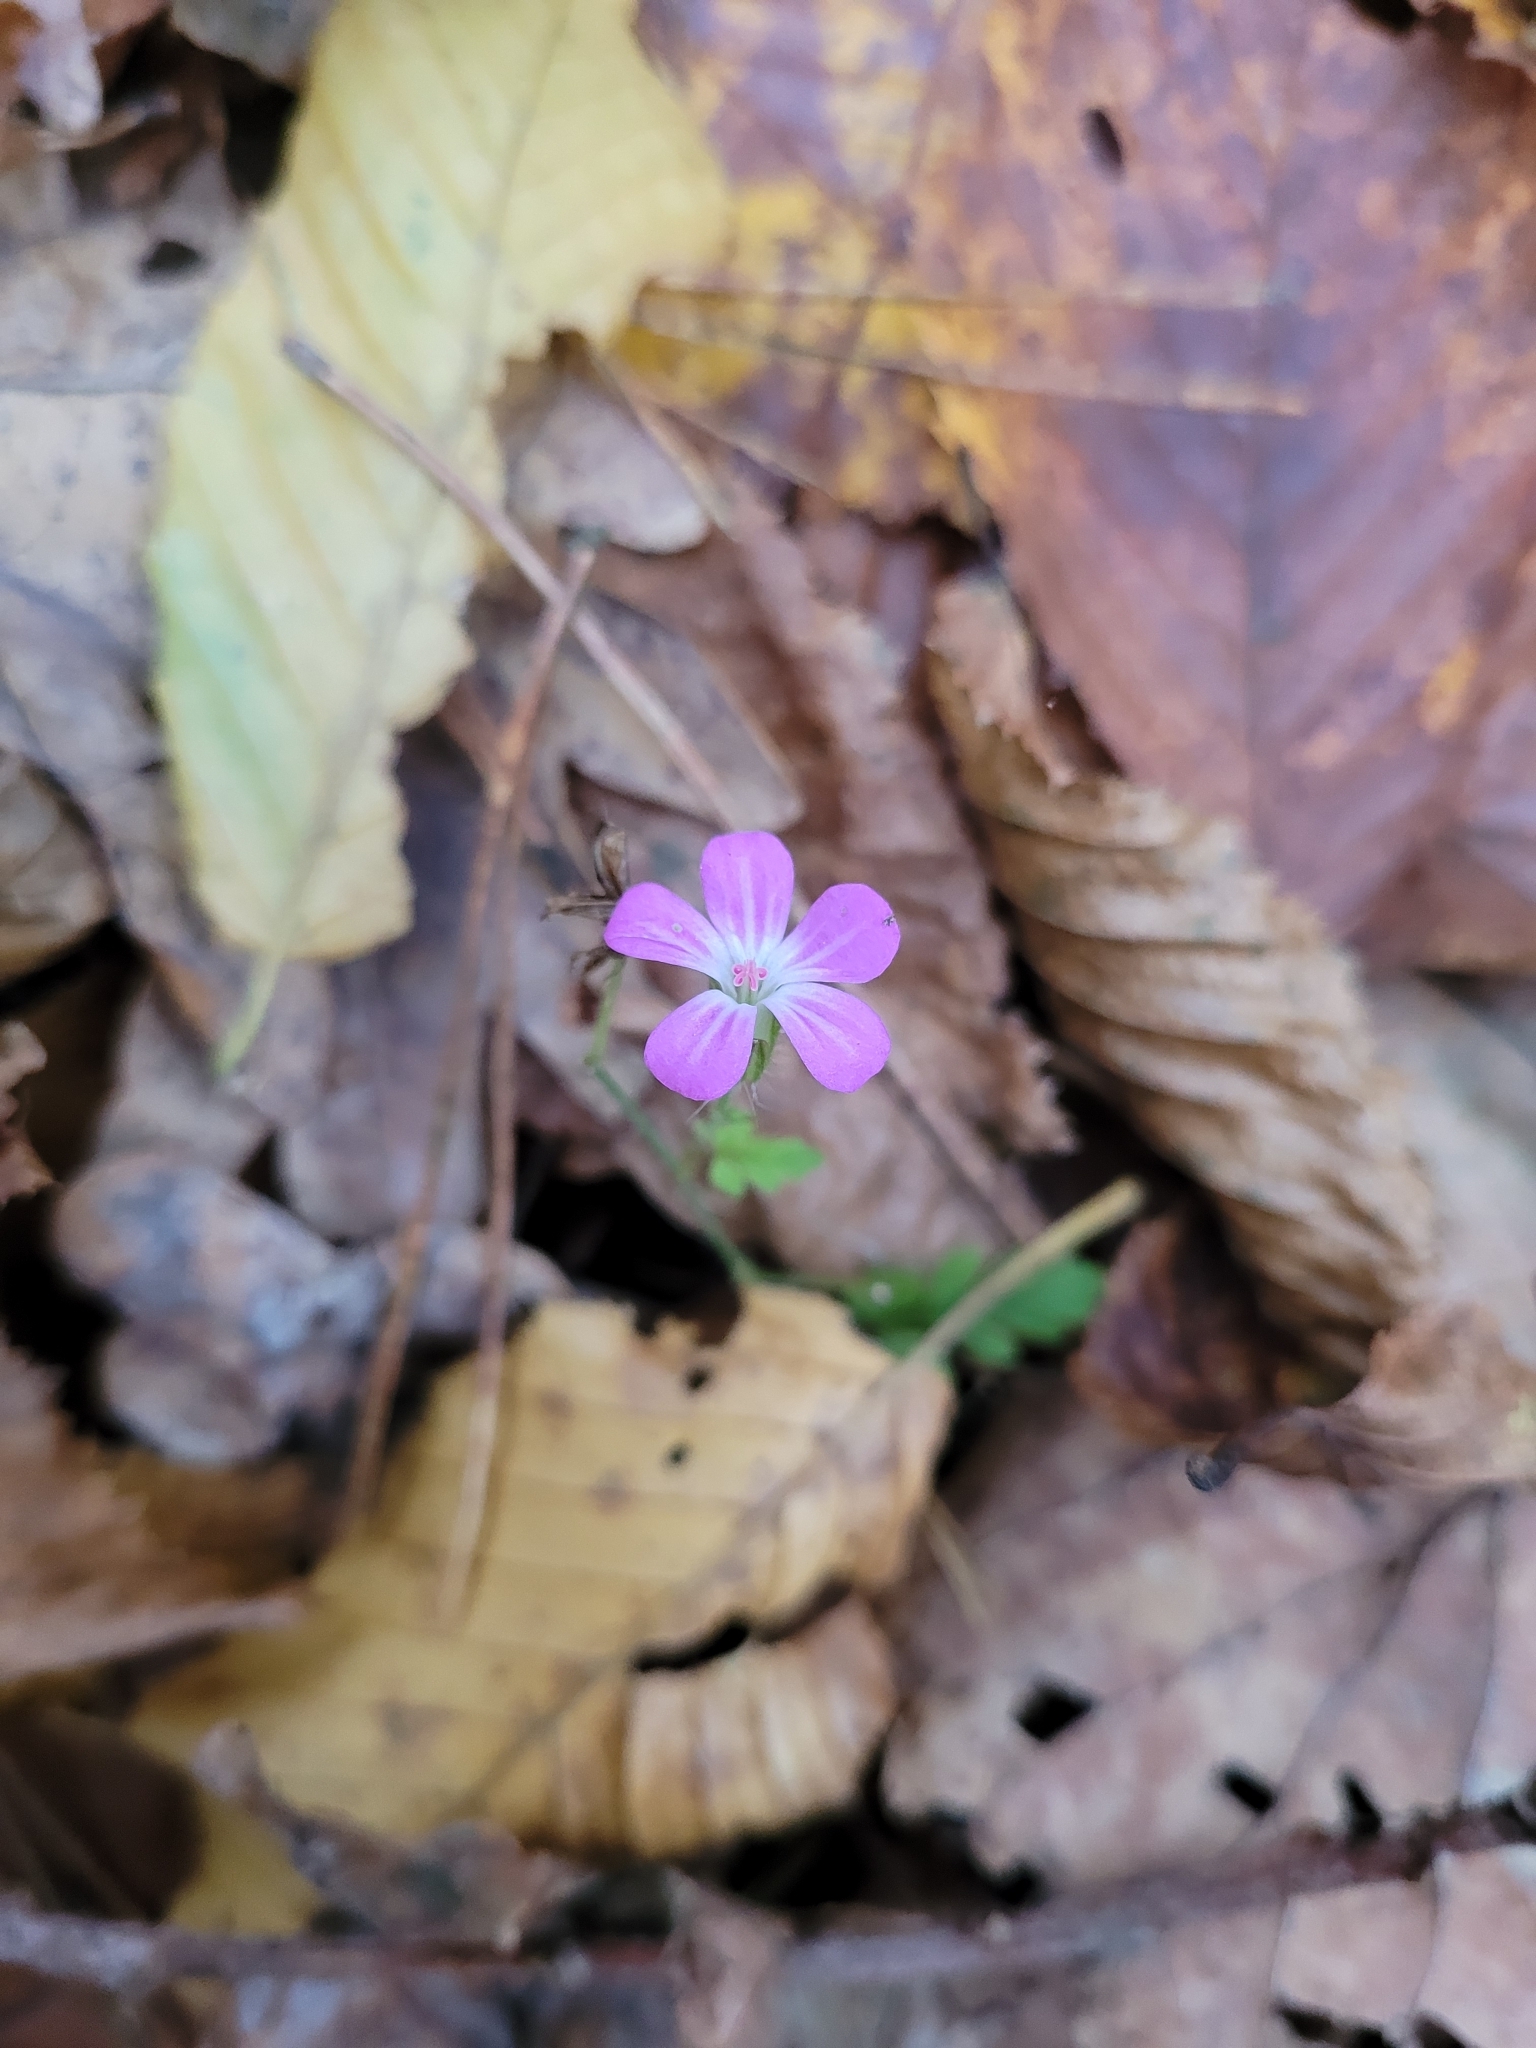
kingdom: Plantae
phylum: Tracheophyta
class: Magnoliopsida
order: Geraniales
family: Geraniaceae
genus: Geranium
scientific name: Geranium robertianum
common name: Herb-robert
